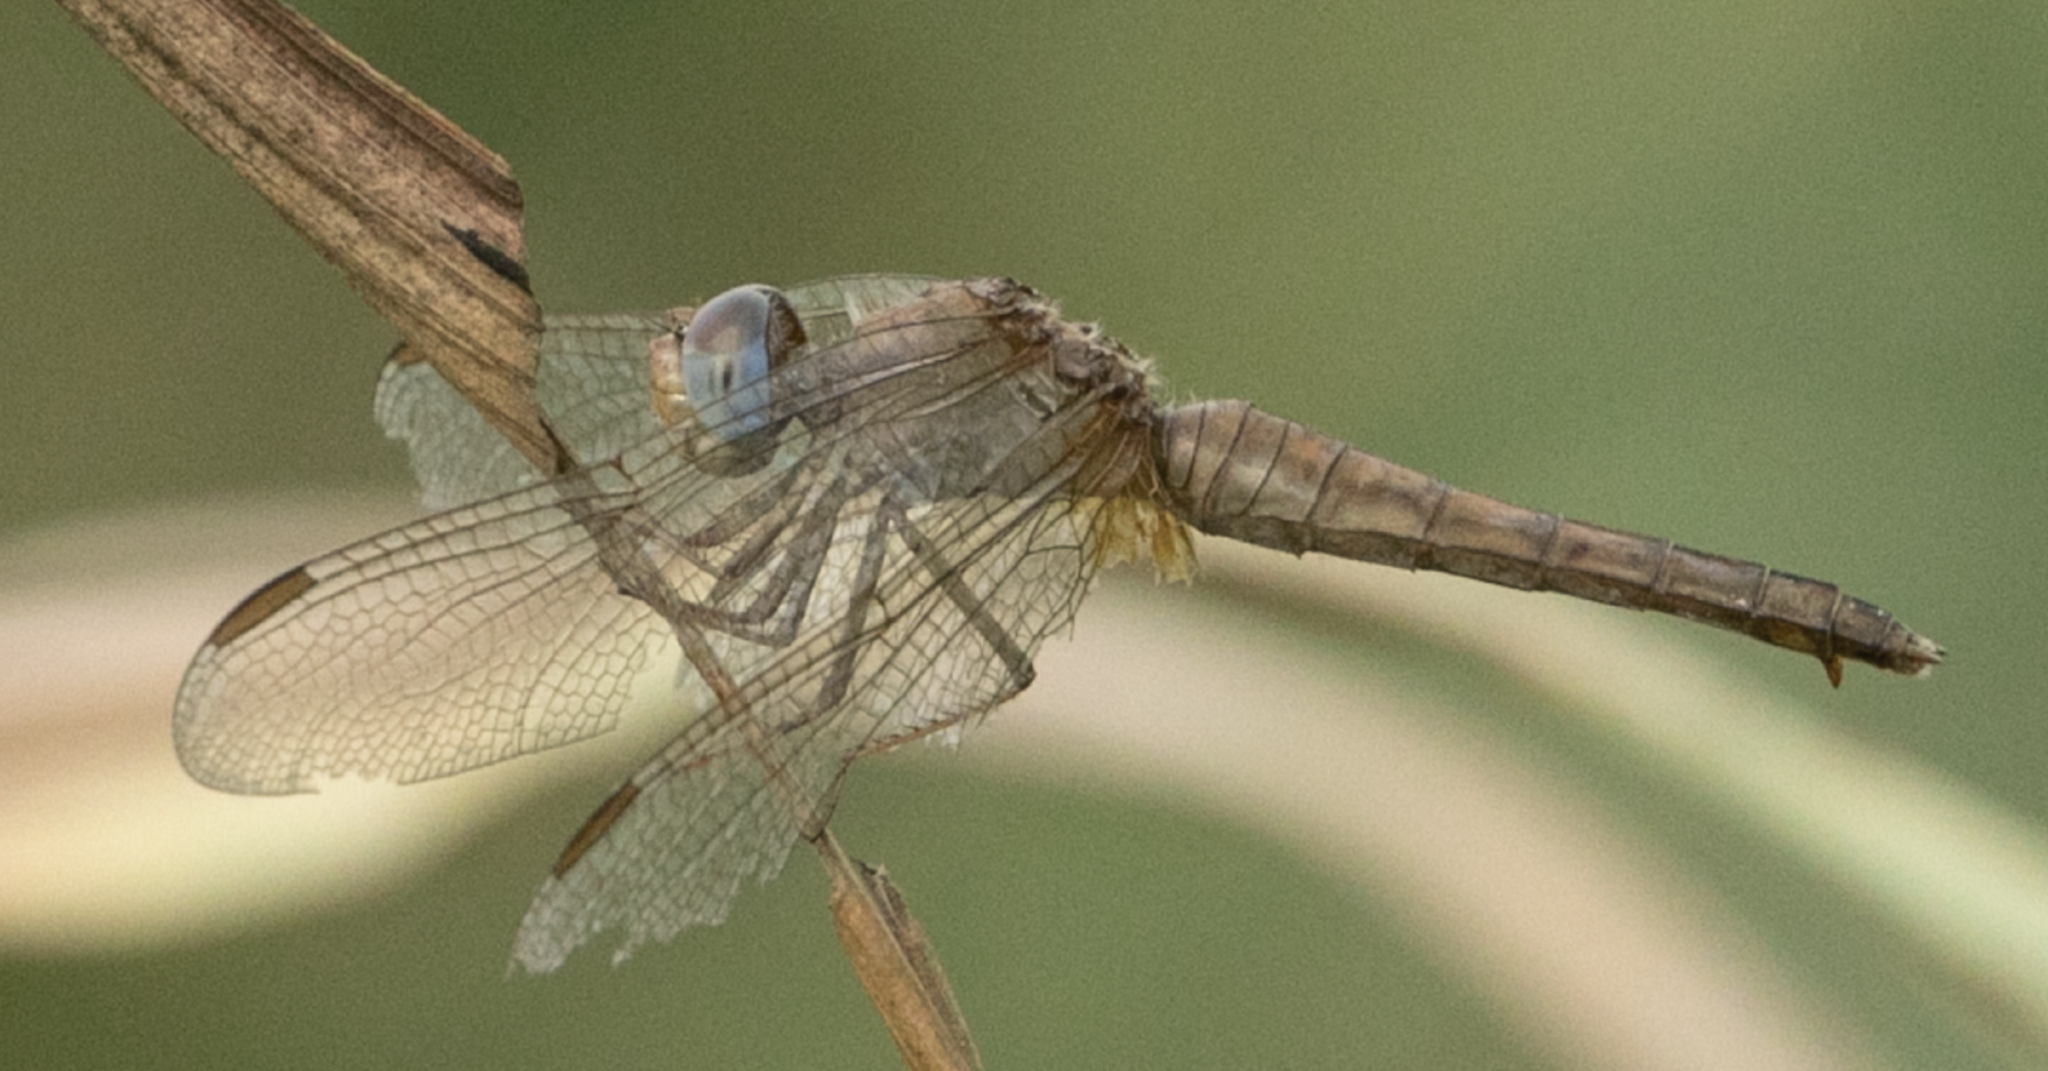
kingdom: Animalia
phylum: Arthropoda
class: Insecta
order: Odonata
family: Libellulidae
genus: Crocothemis
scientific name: Crocothemis erythraea
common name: Scarlet dragonfly
